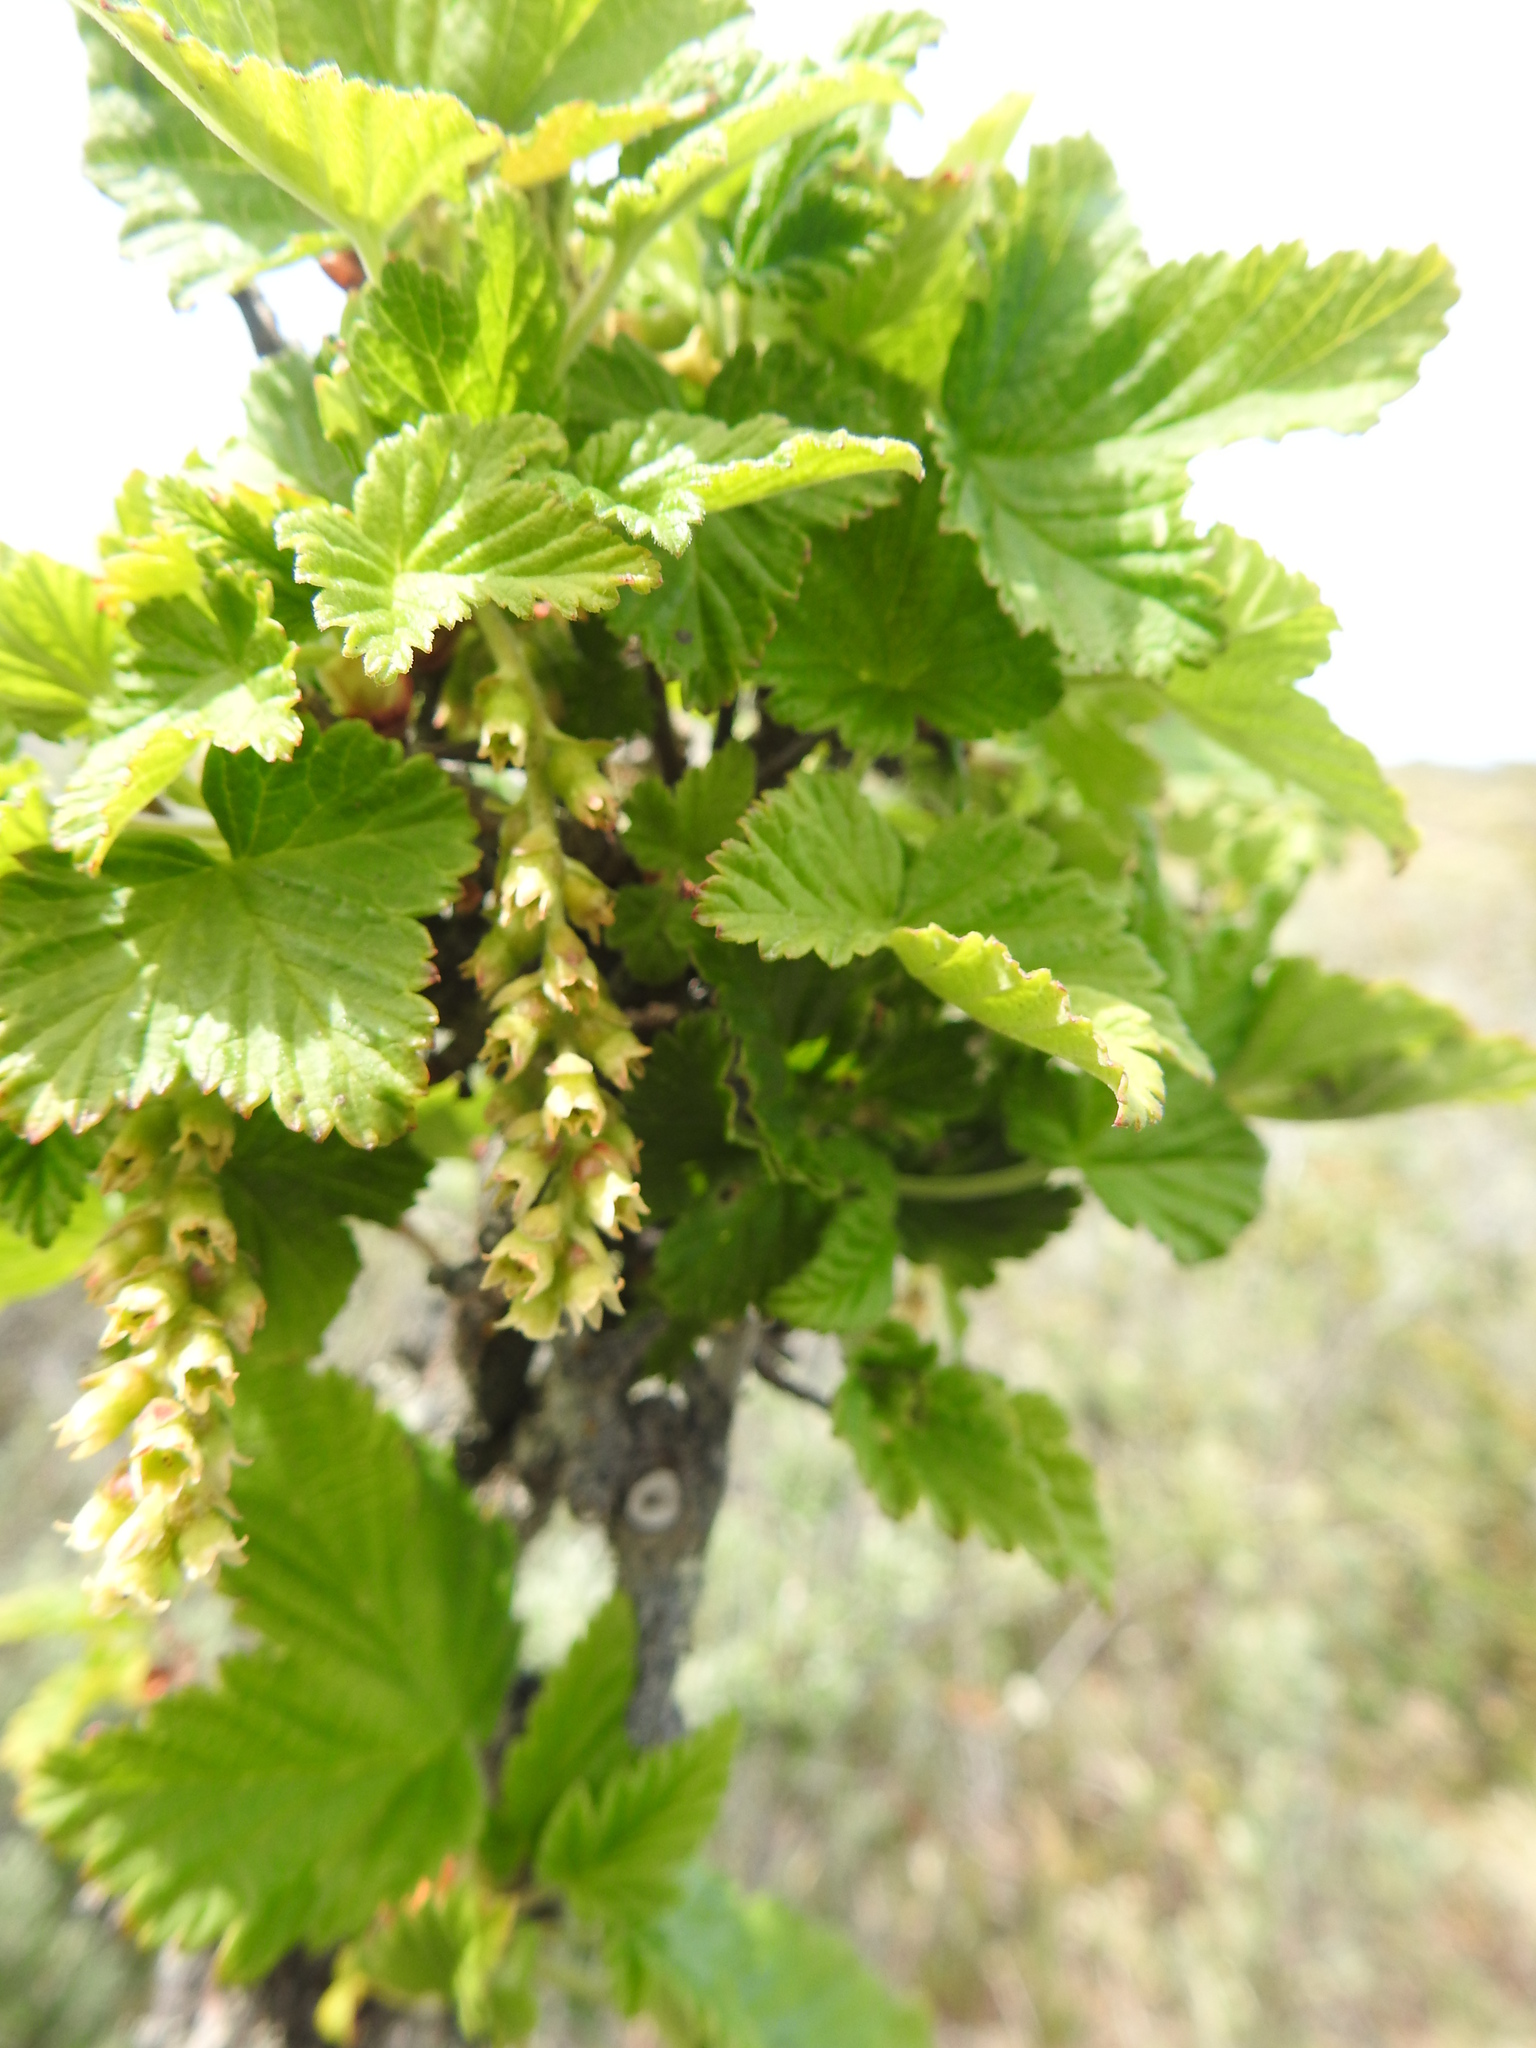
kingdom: Plantae
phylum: Tracheophyta
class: Magnoliopsida
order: Saxifragales
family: Grossulariaceae
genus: Ribes
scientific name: Ribes magellanicum
